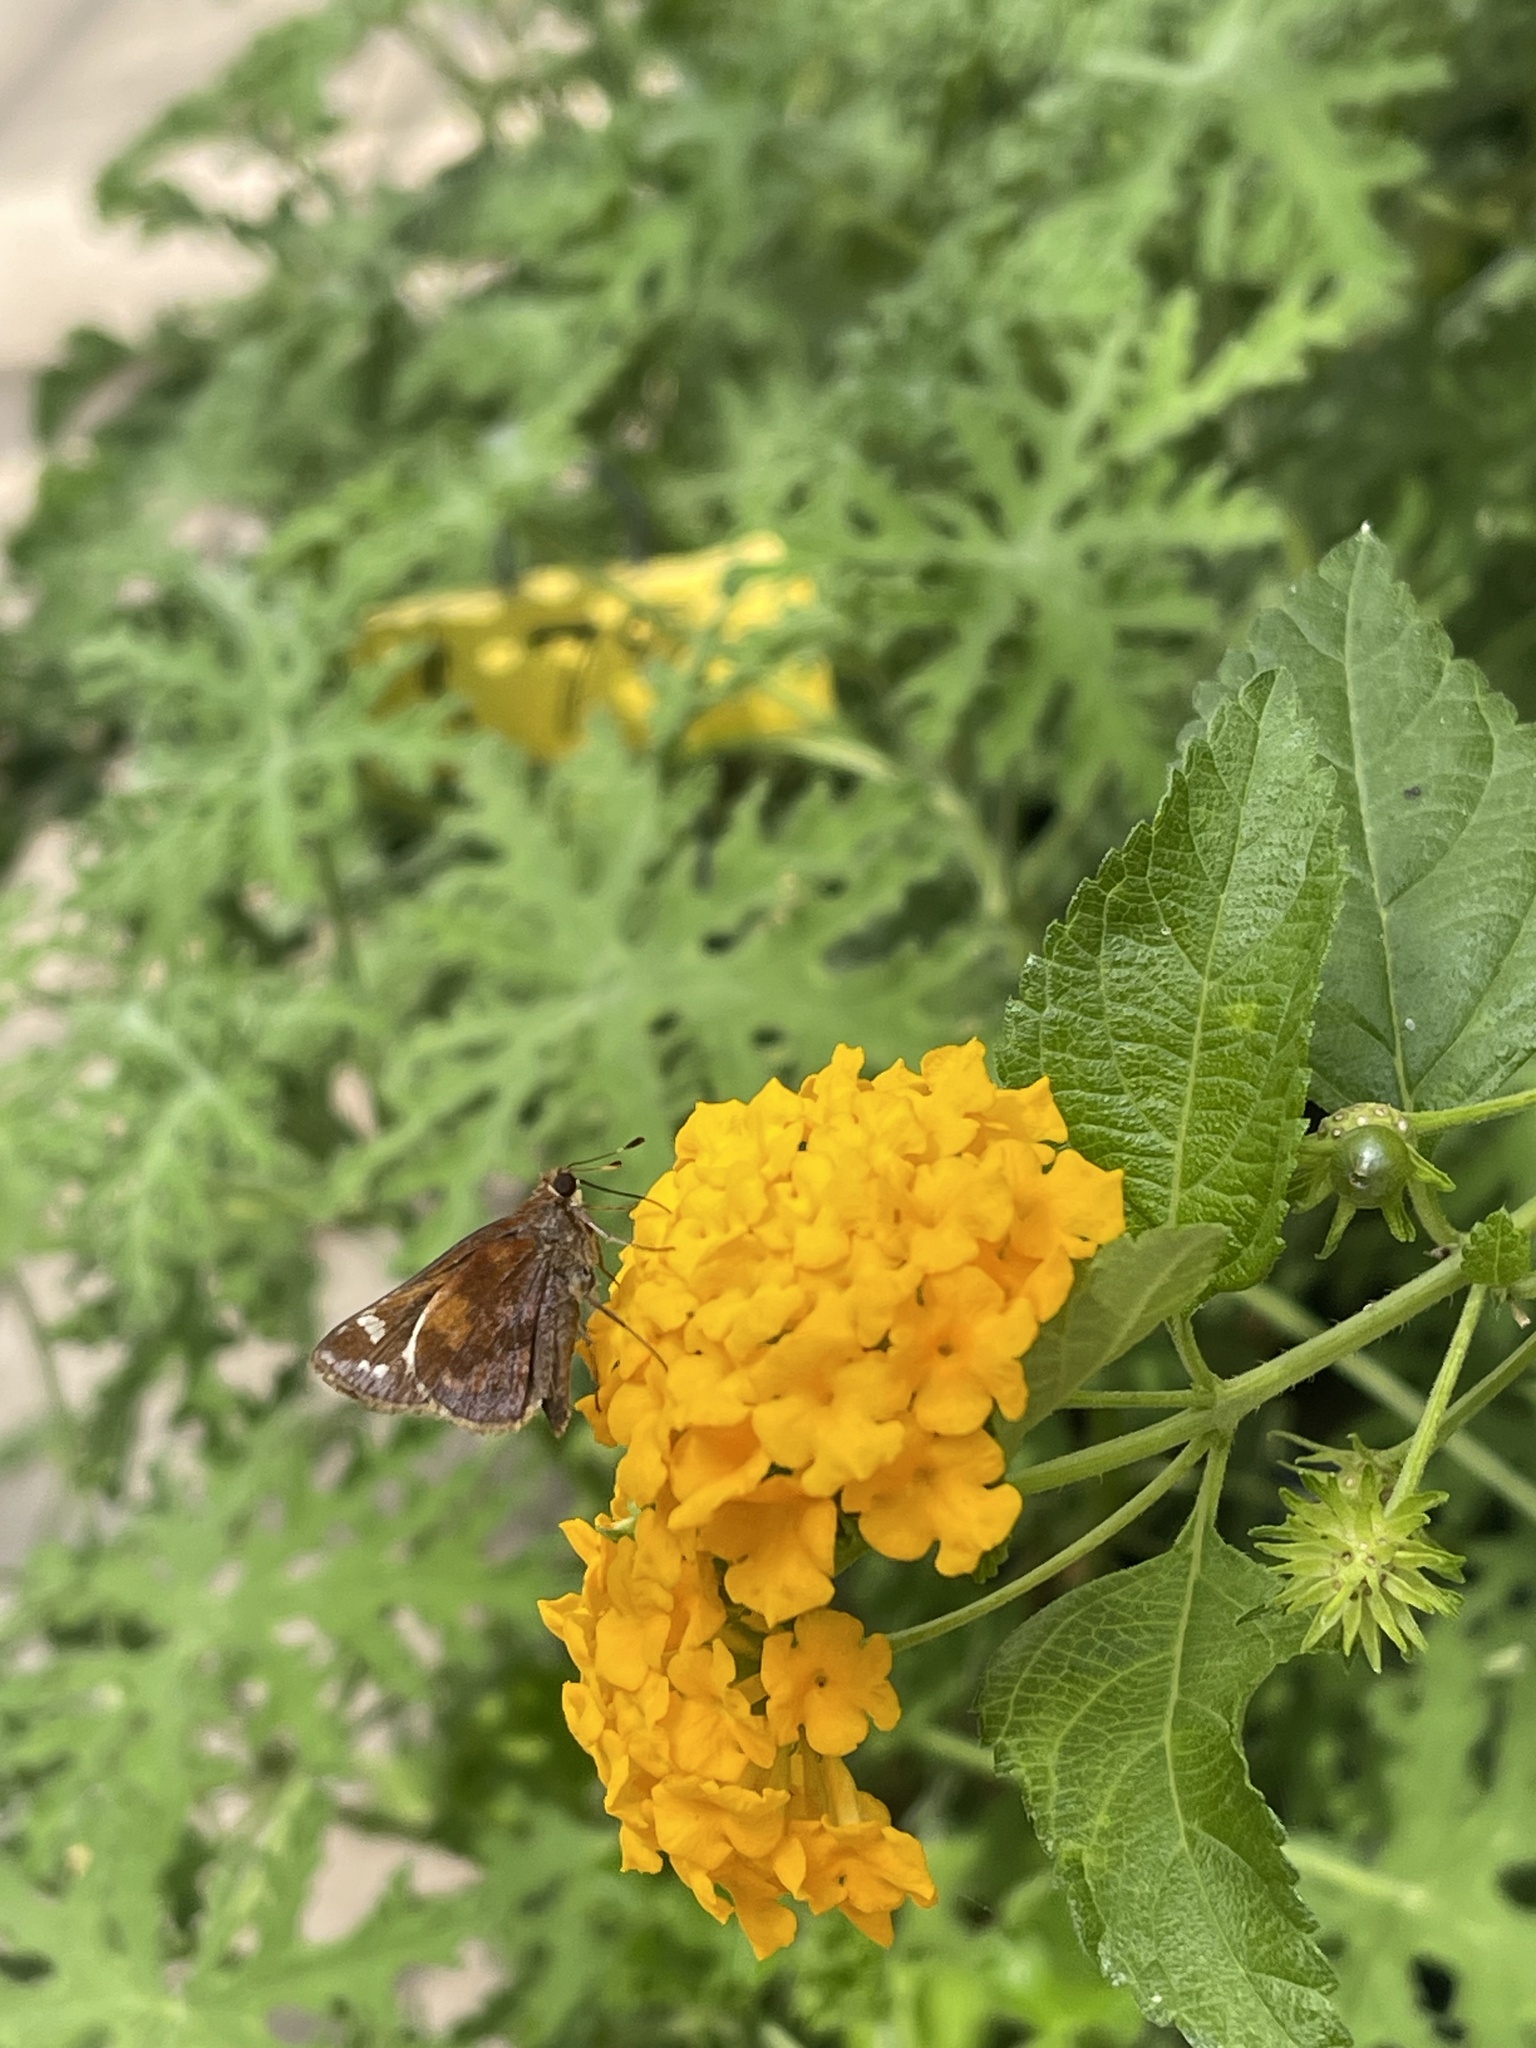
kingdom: Animalia
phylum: Arthropoda
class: Insecta
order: Lepidoptera
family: Hesperiidae
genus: Lon
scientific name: Lon zabulon
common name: Zabulon skipper
